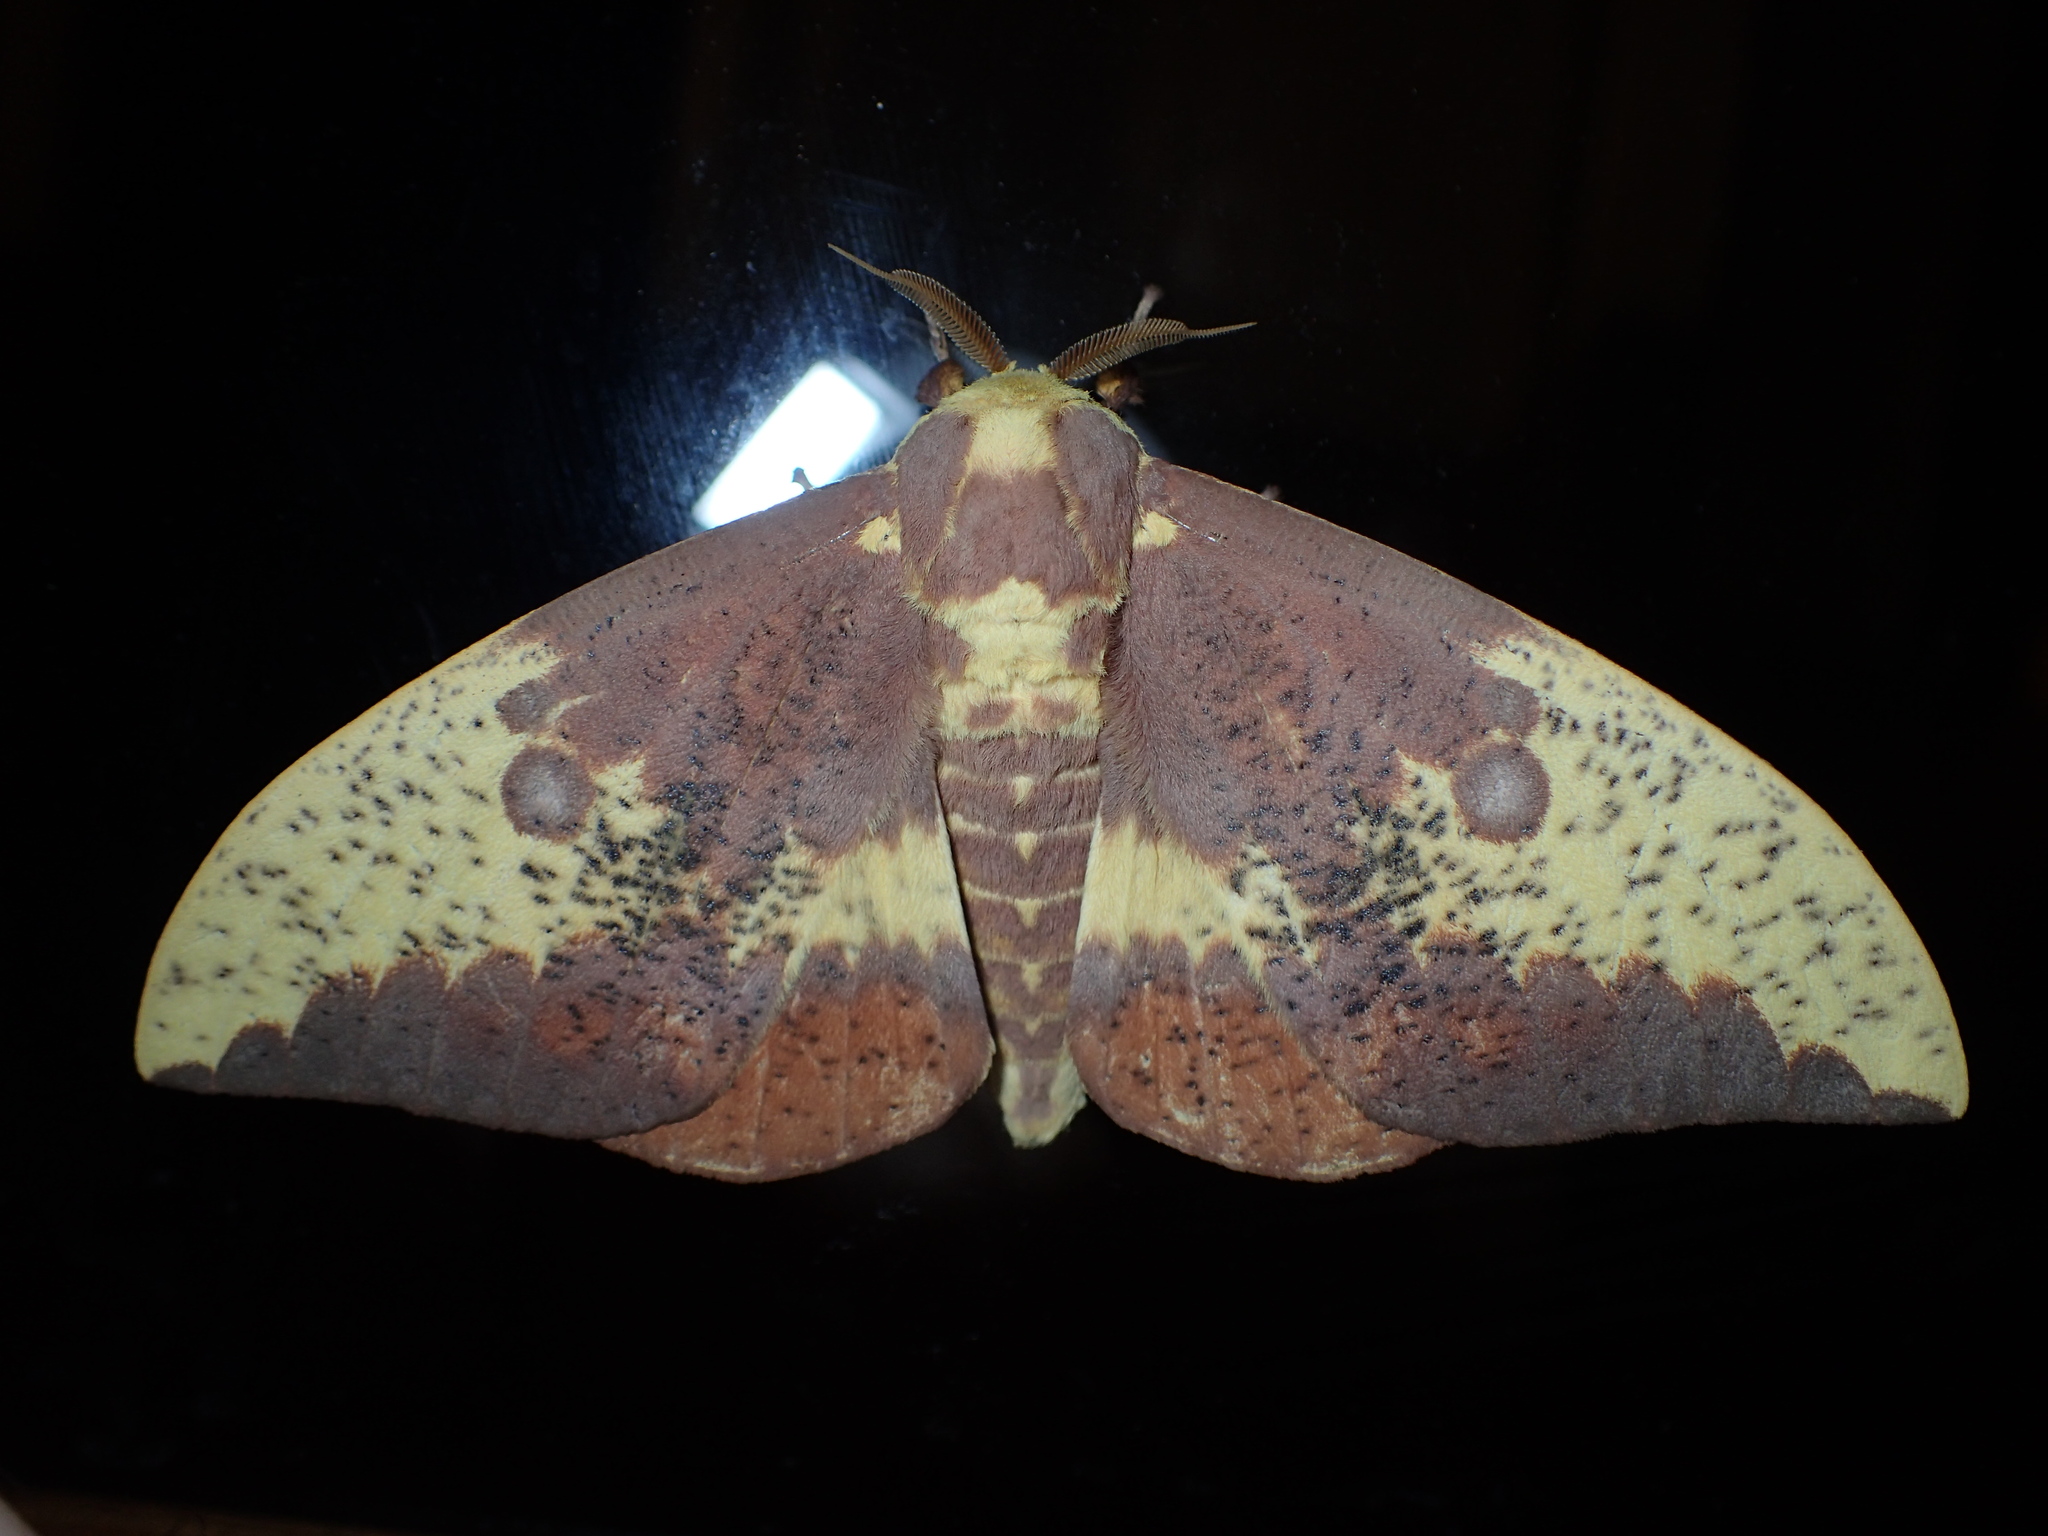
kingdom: Animalia
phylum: Arthropoda
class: Insecta
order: Lepidoptera
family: Saturniidae
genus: Eacles
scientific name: Eacles imperialis
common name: Imperial moth
